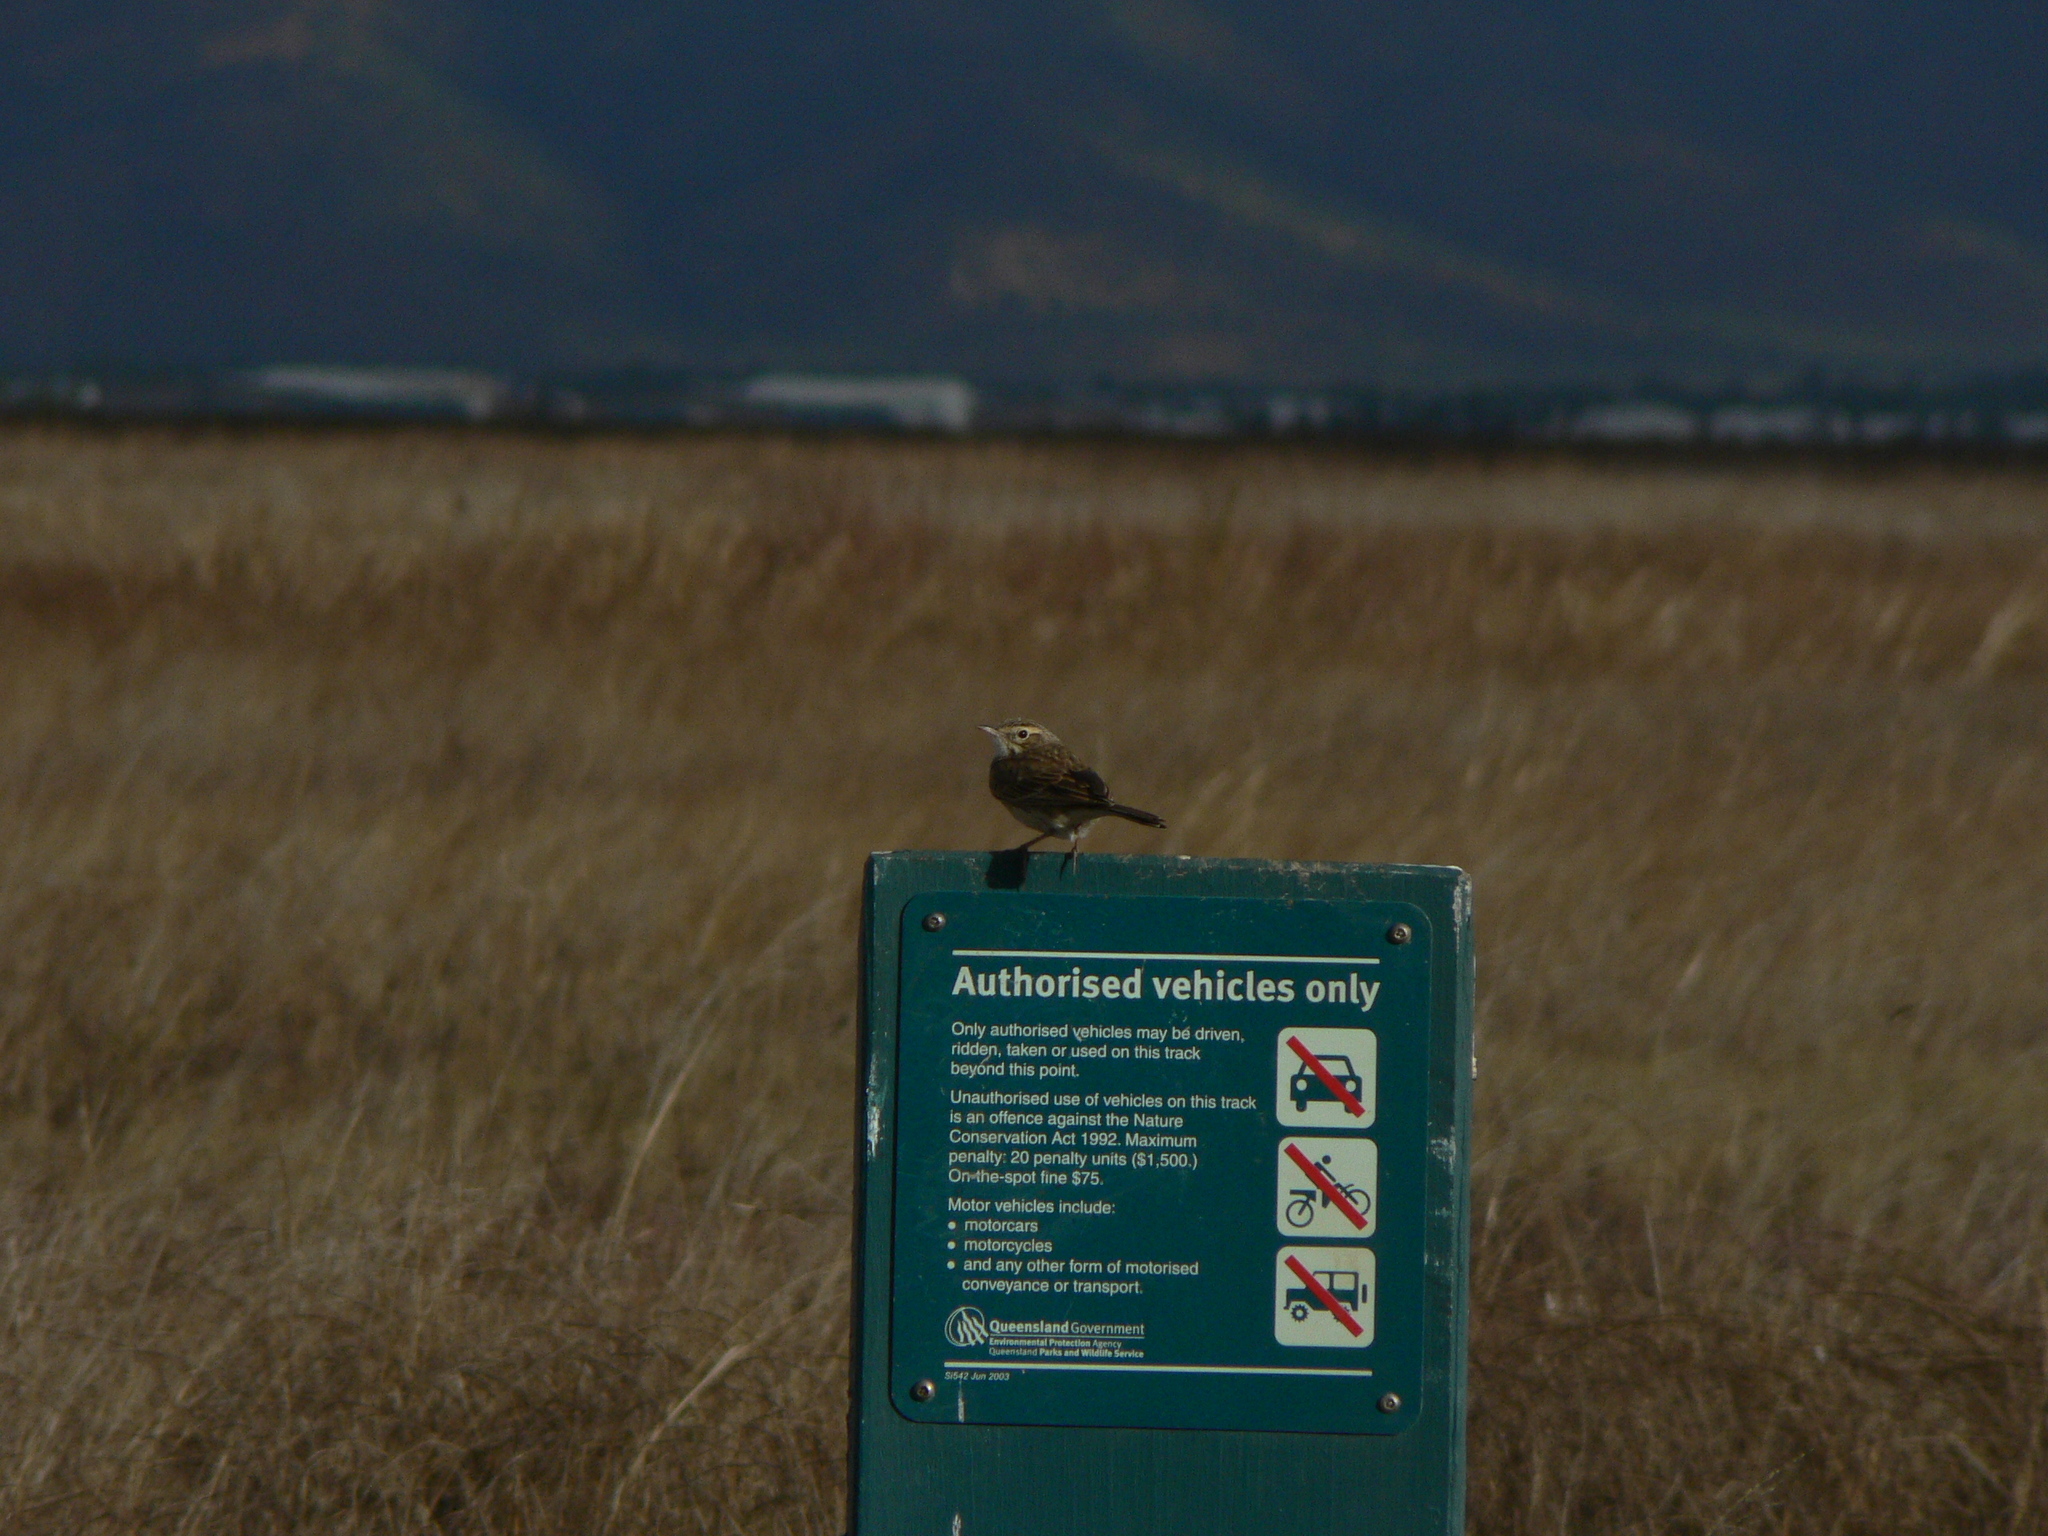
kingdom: Animalia
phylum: Chordata
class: Aves
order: Passeriformes
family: Motacillidae
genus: Anthus
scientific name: Anthus australis
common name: Australian pipit
